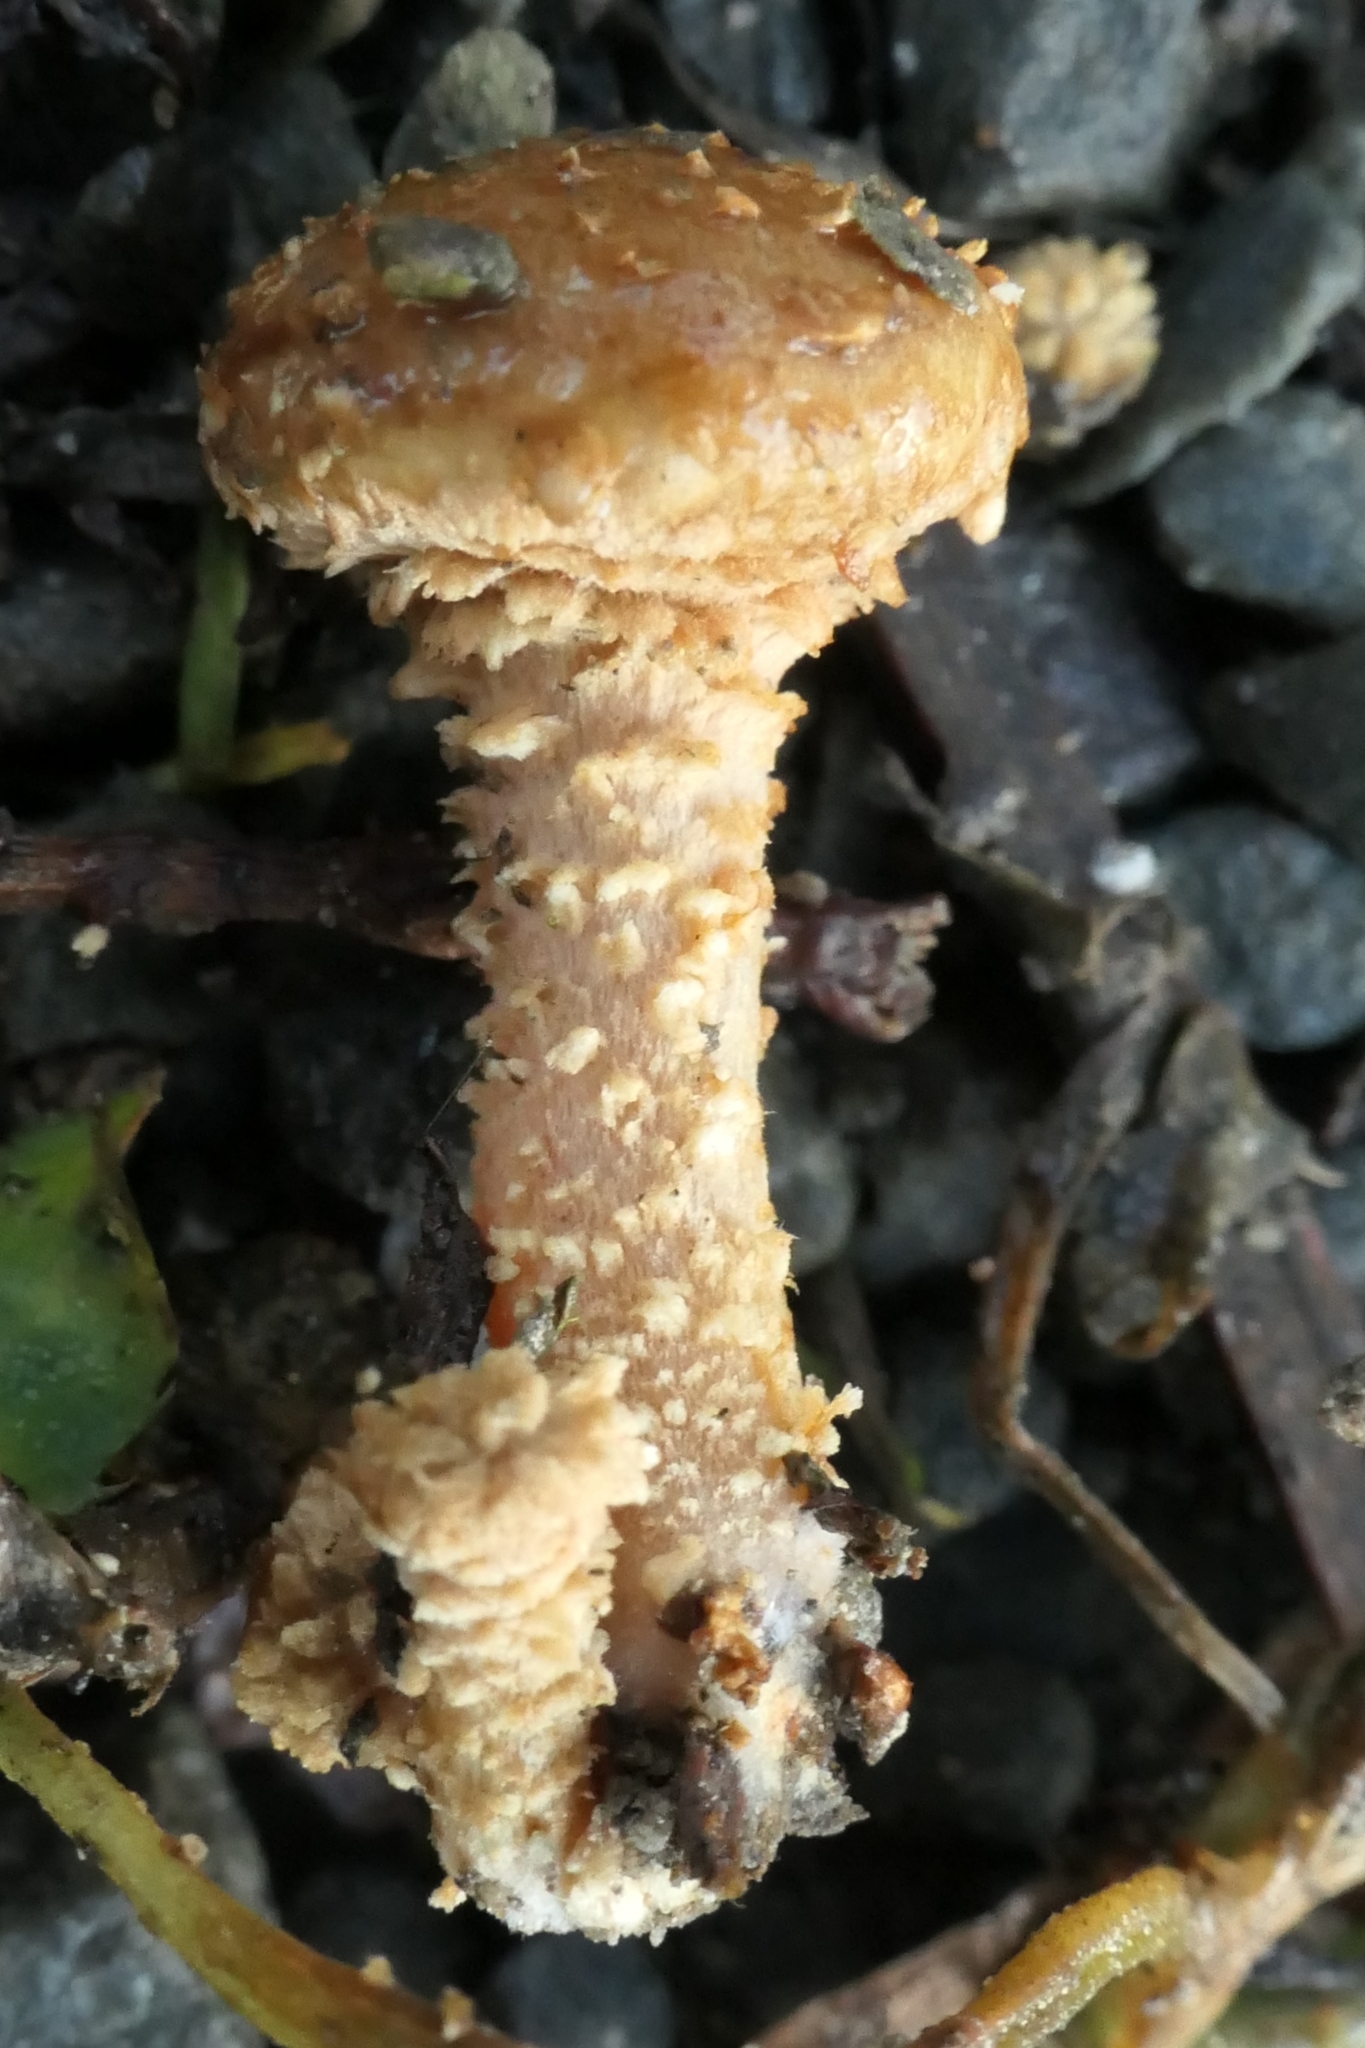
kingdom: Fungi
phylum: Basidiomycota
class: Agaricomycetes
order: Agaricales
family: Strophariaceae
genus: Pholiota
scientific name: Pholiota subflammans
